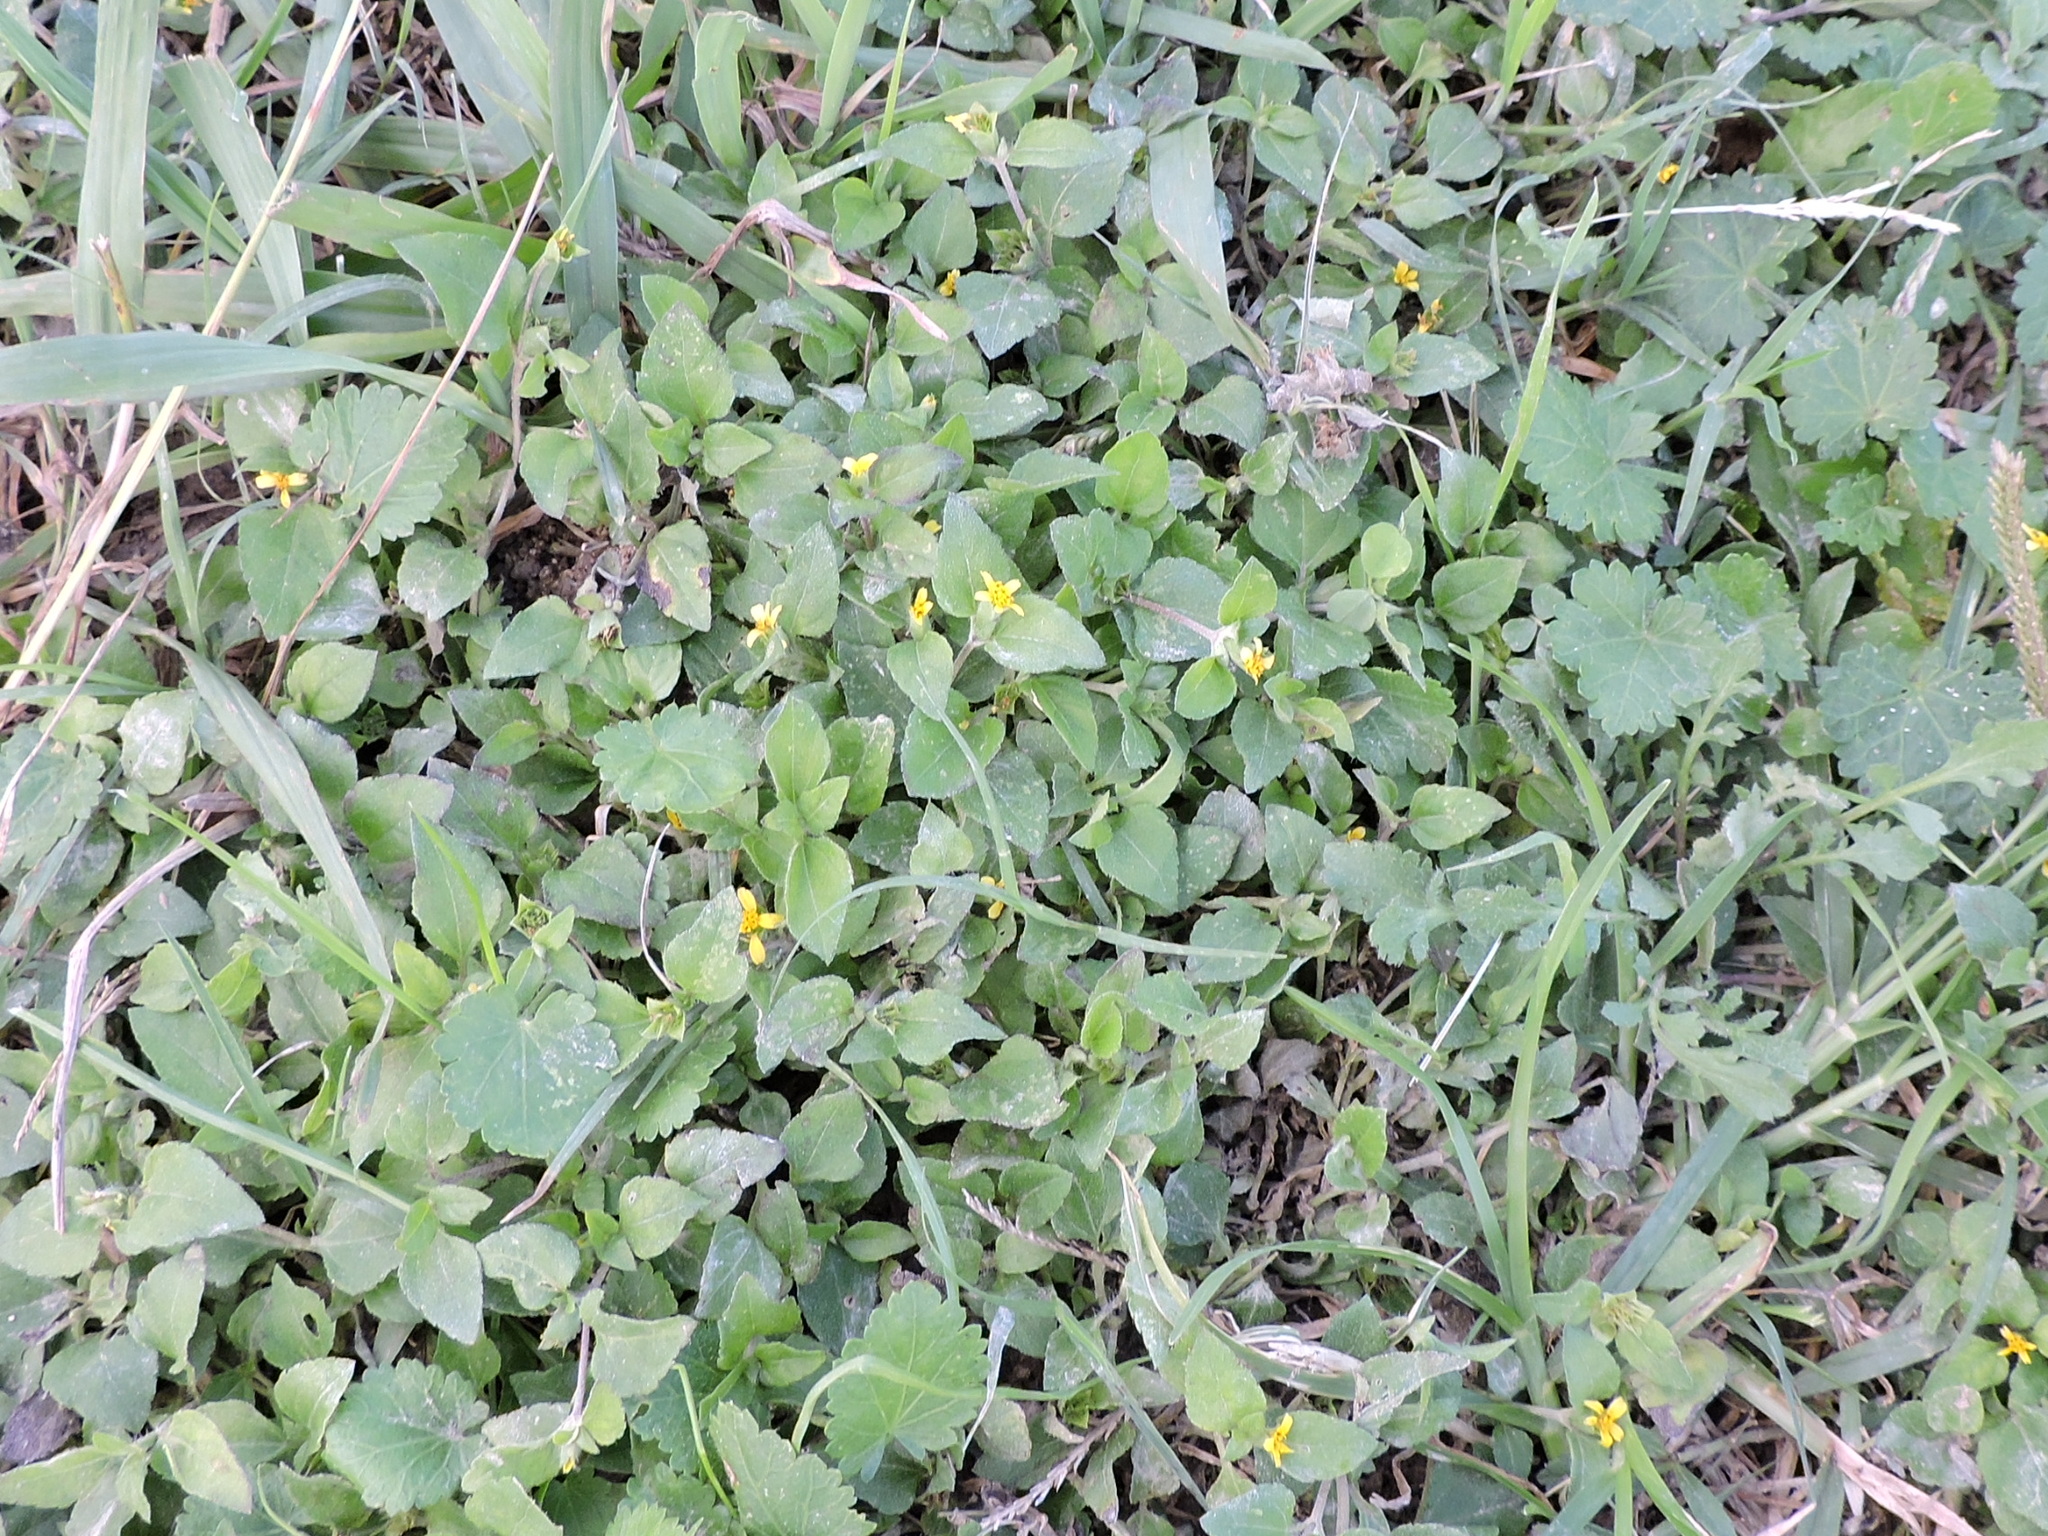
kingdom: Plantae
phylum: Tracheophyta
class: Magnoliopsida
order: Asterales
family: Asteraceae
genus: Calyptocarpus
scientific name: Calyptocarpus vialis
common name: Straggler daisy
